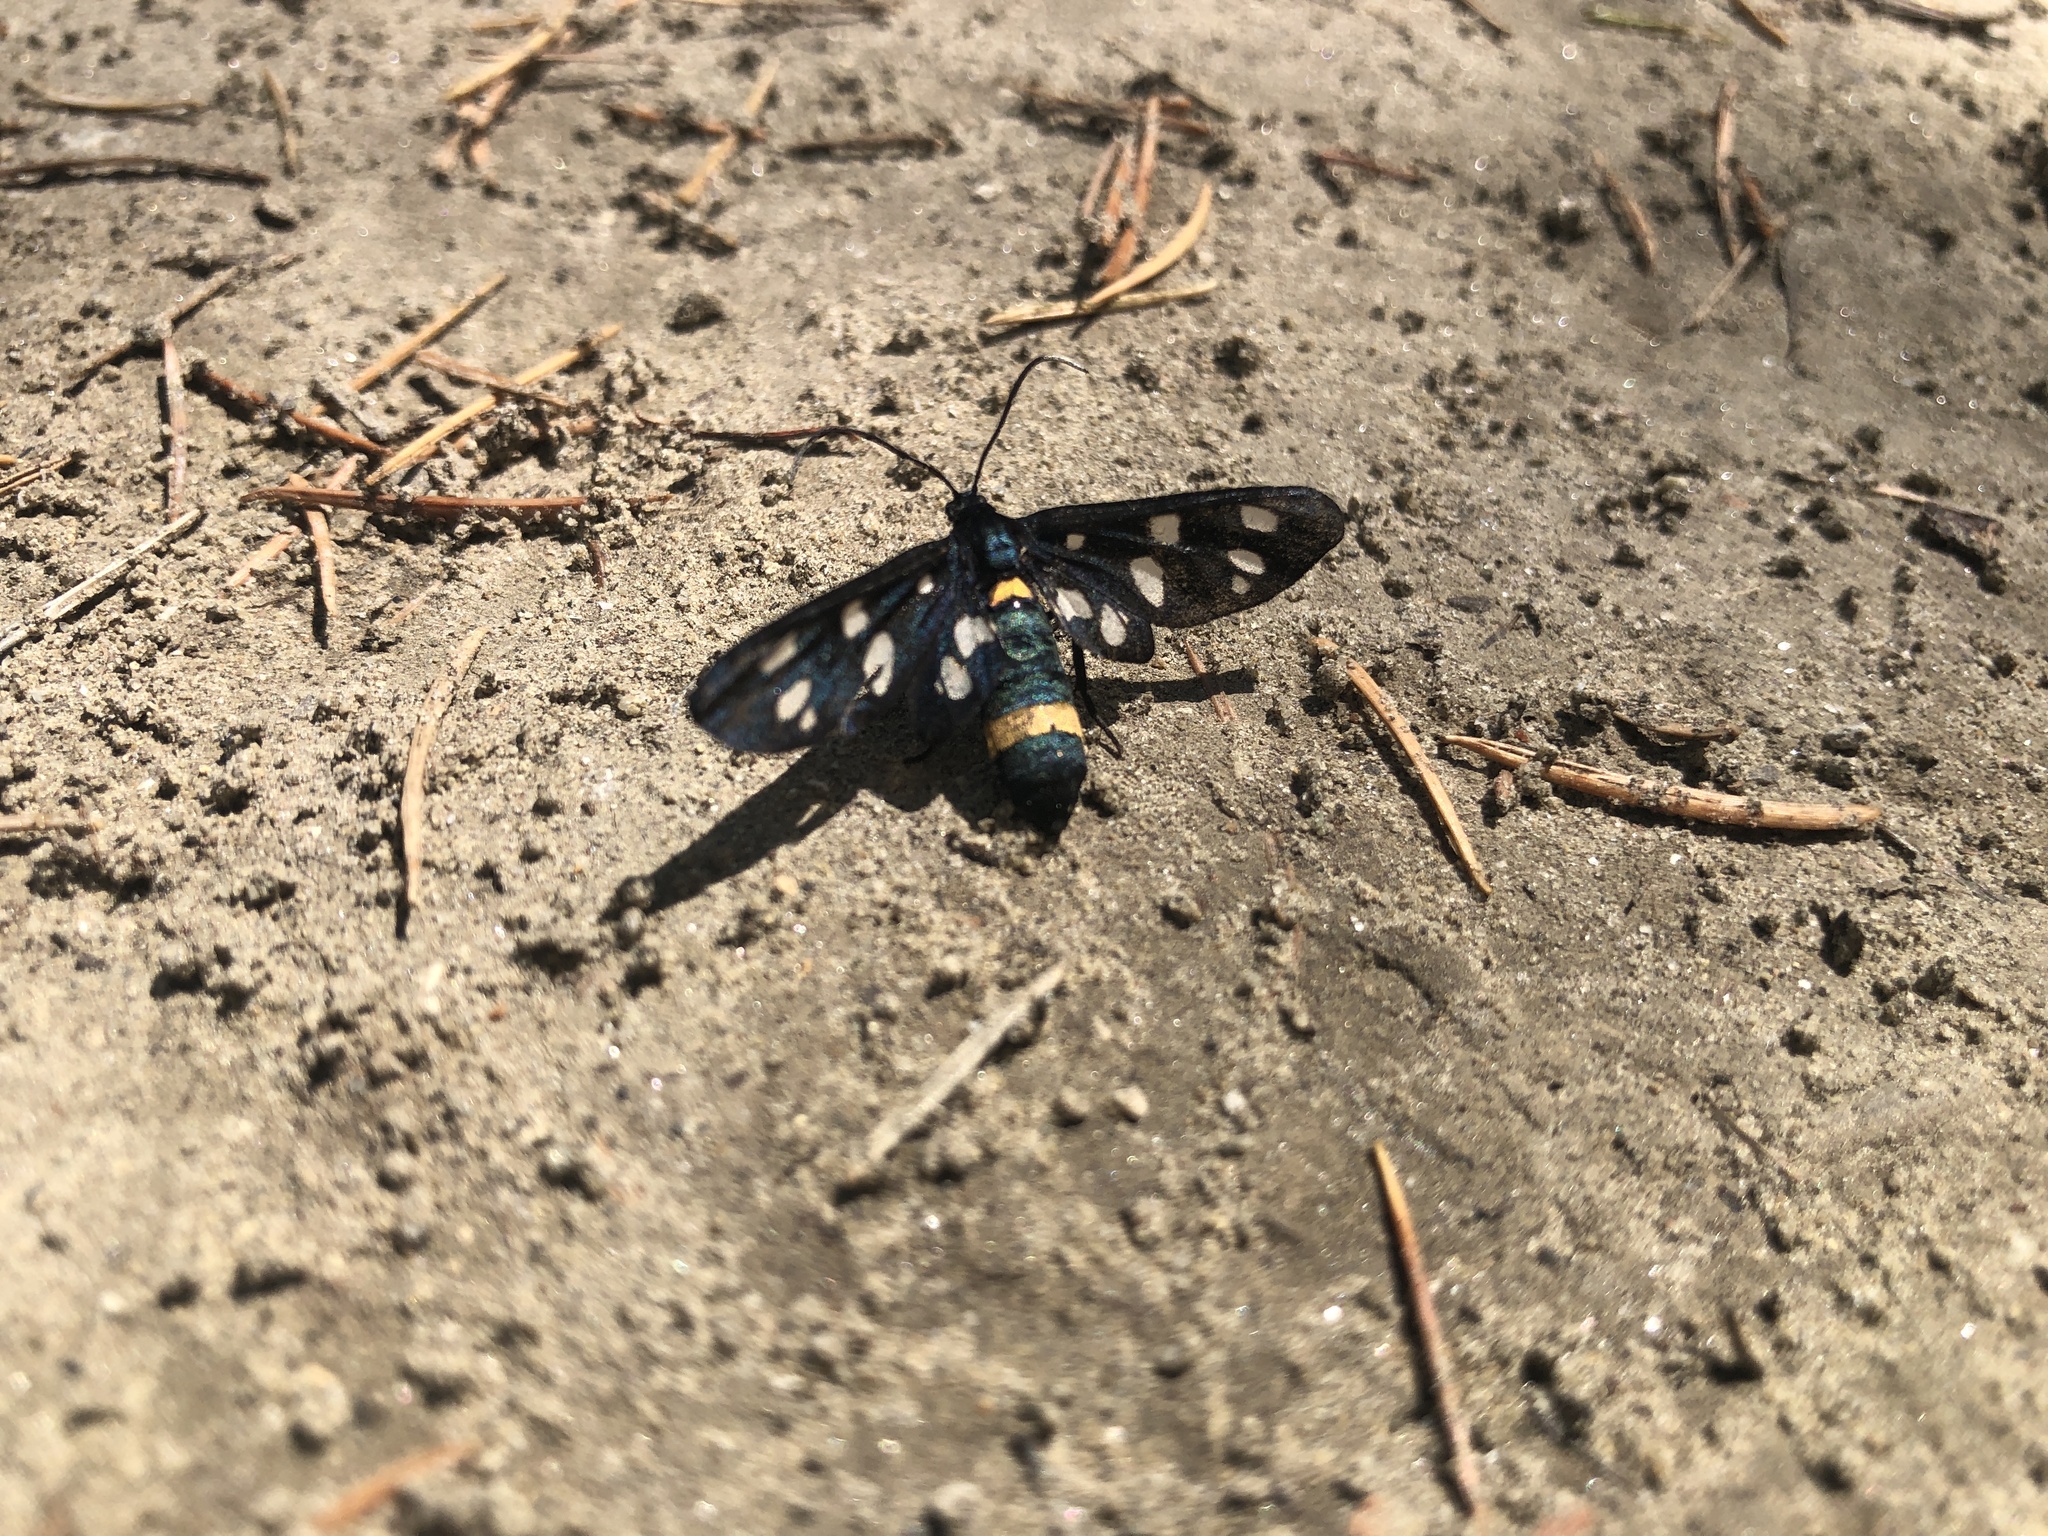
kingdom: Animalia
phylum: Arthropoda
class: Insecta
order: Lepidoptera
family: Erebidae
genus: Amata
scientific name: Amata phegea
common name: Nine-spotted
